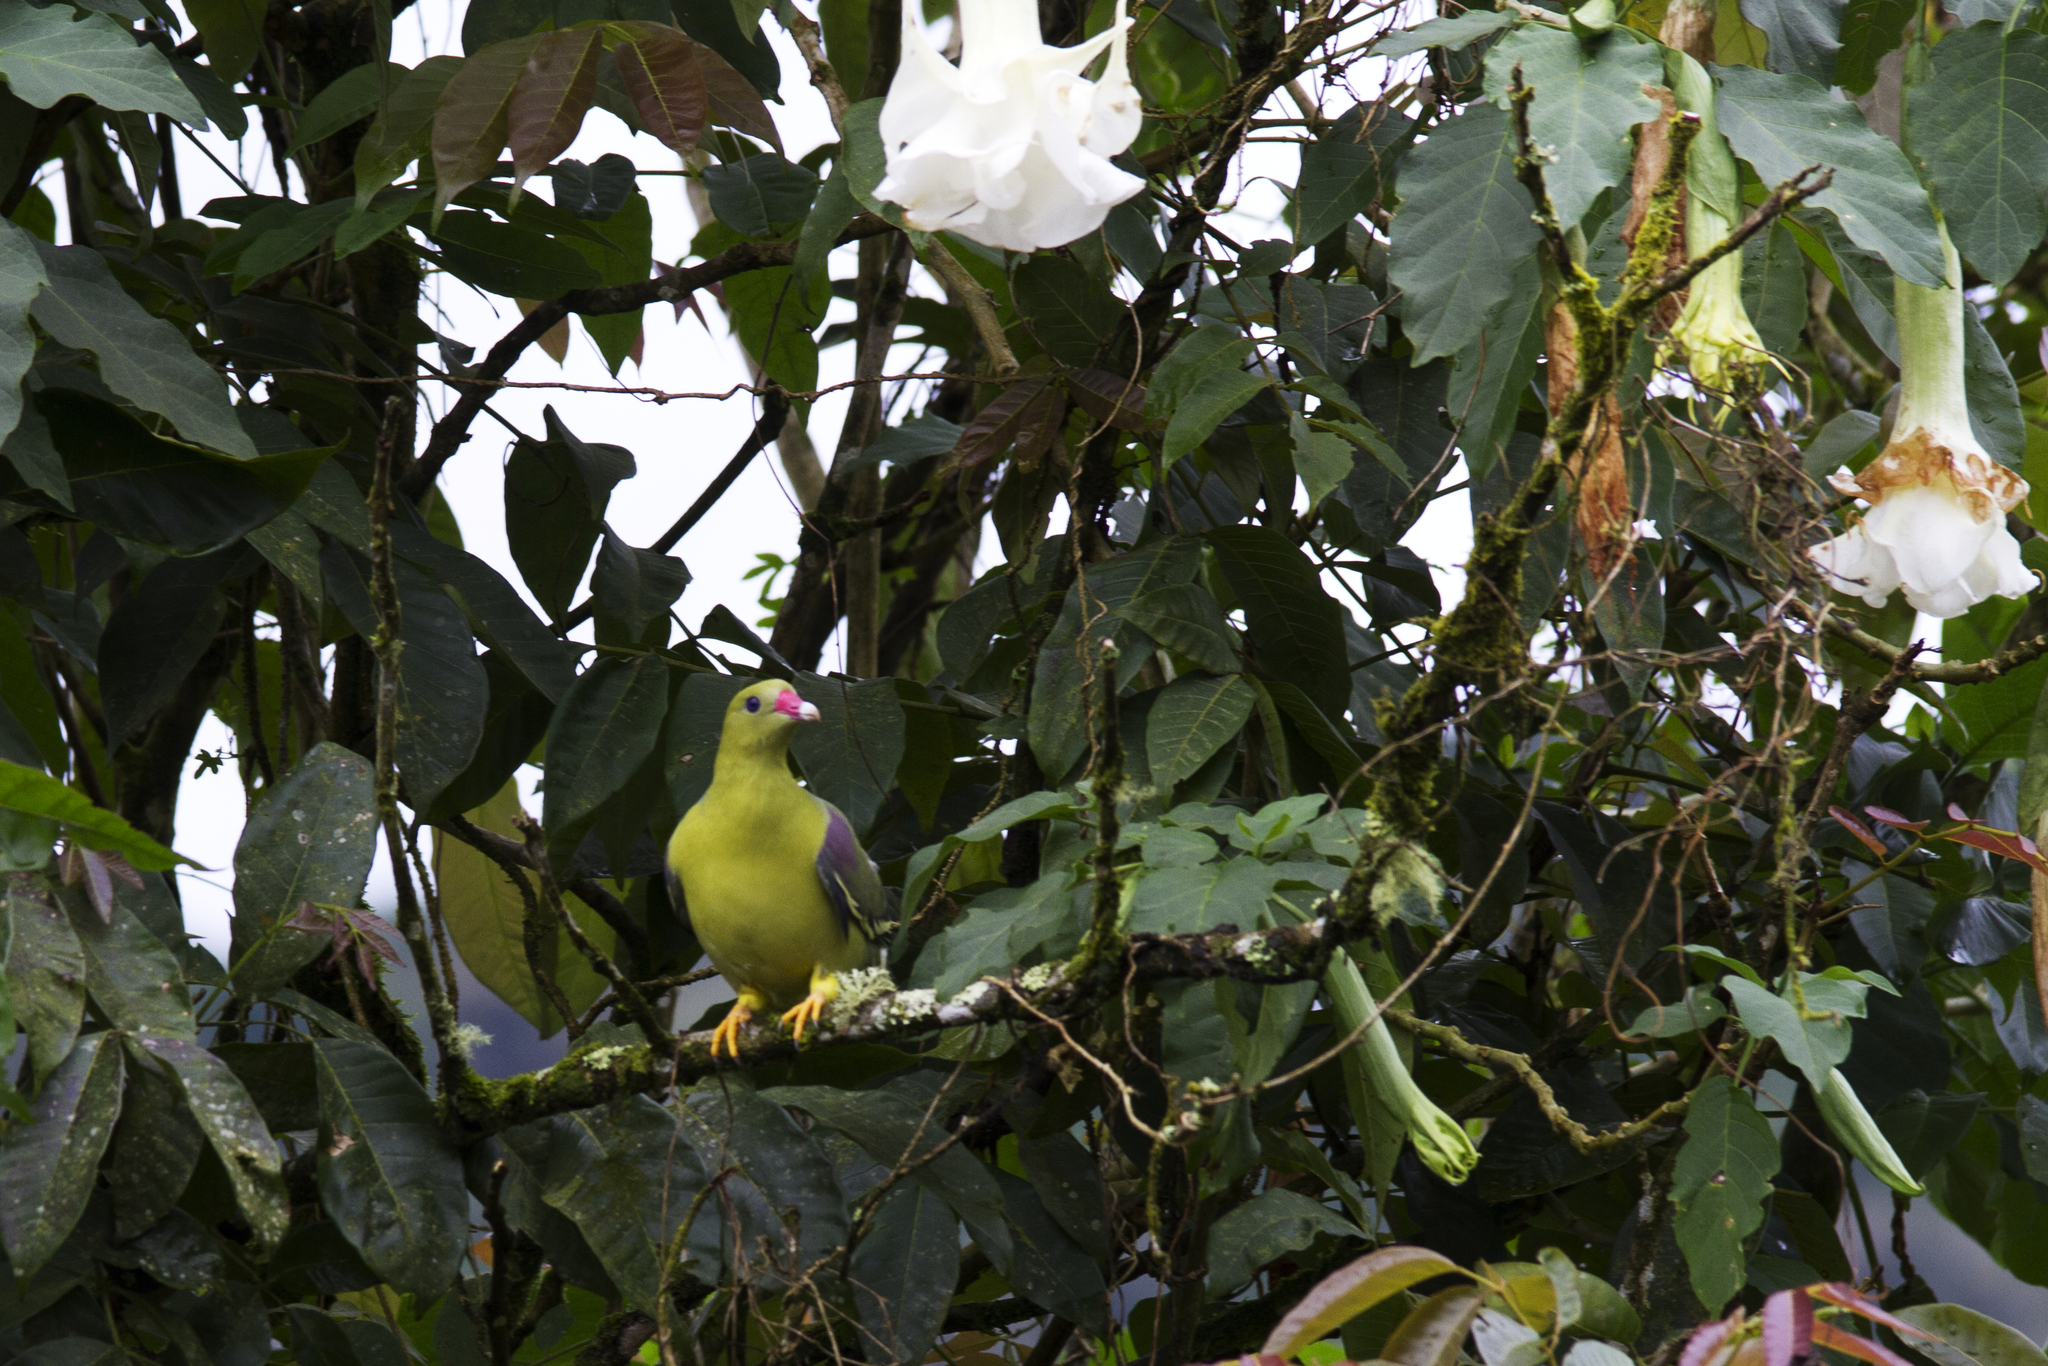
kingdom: Animalia
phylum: Chordata
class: Aves
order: Columbiformes
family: Columbidae
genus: Treron
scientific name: Treron calvus
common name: African green pigeon
